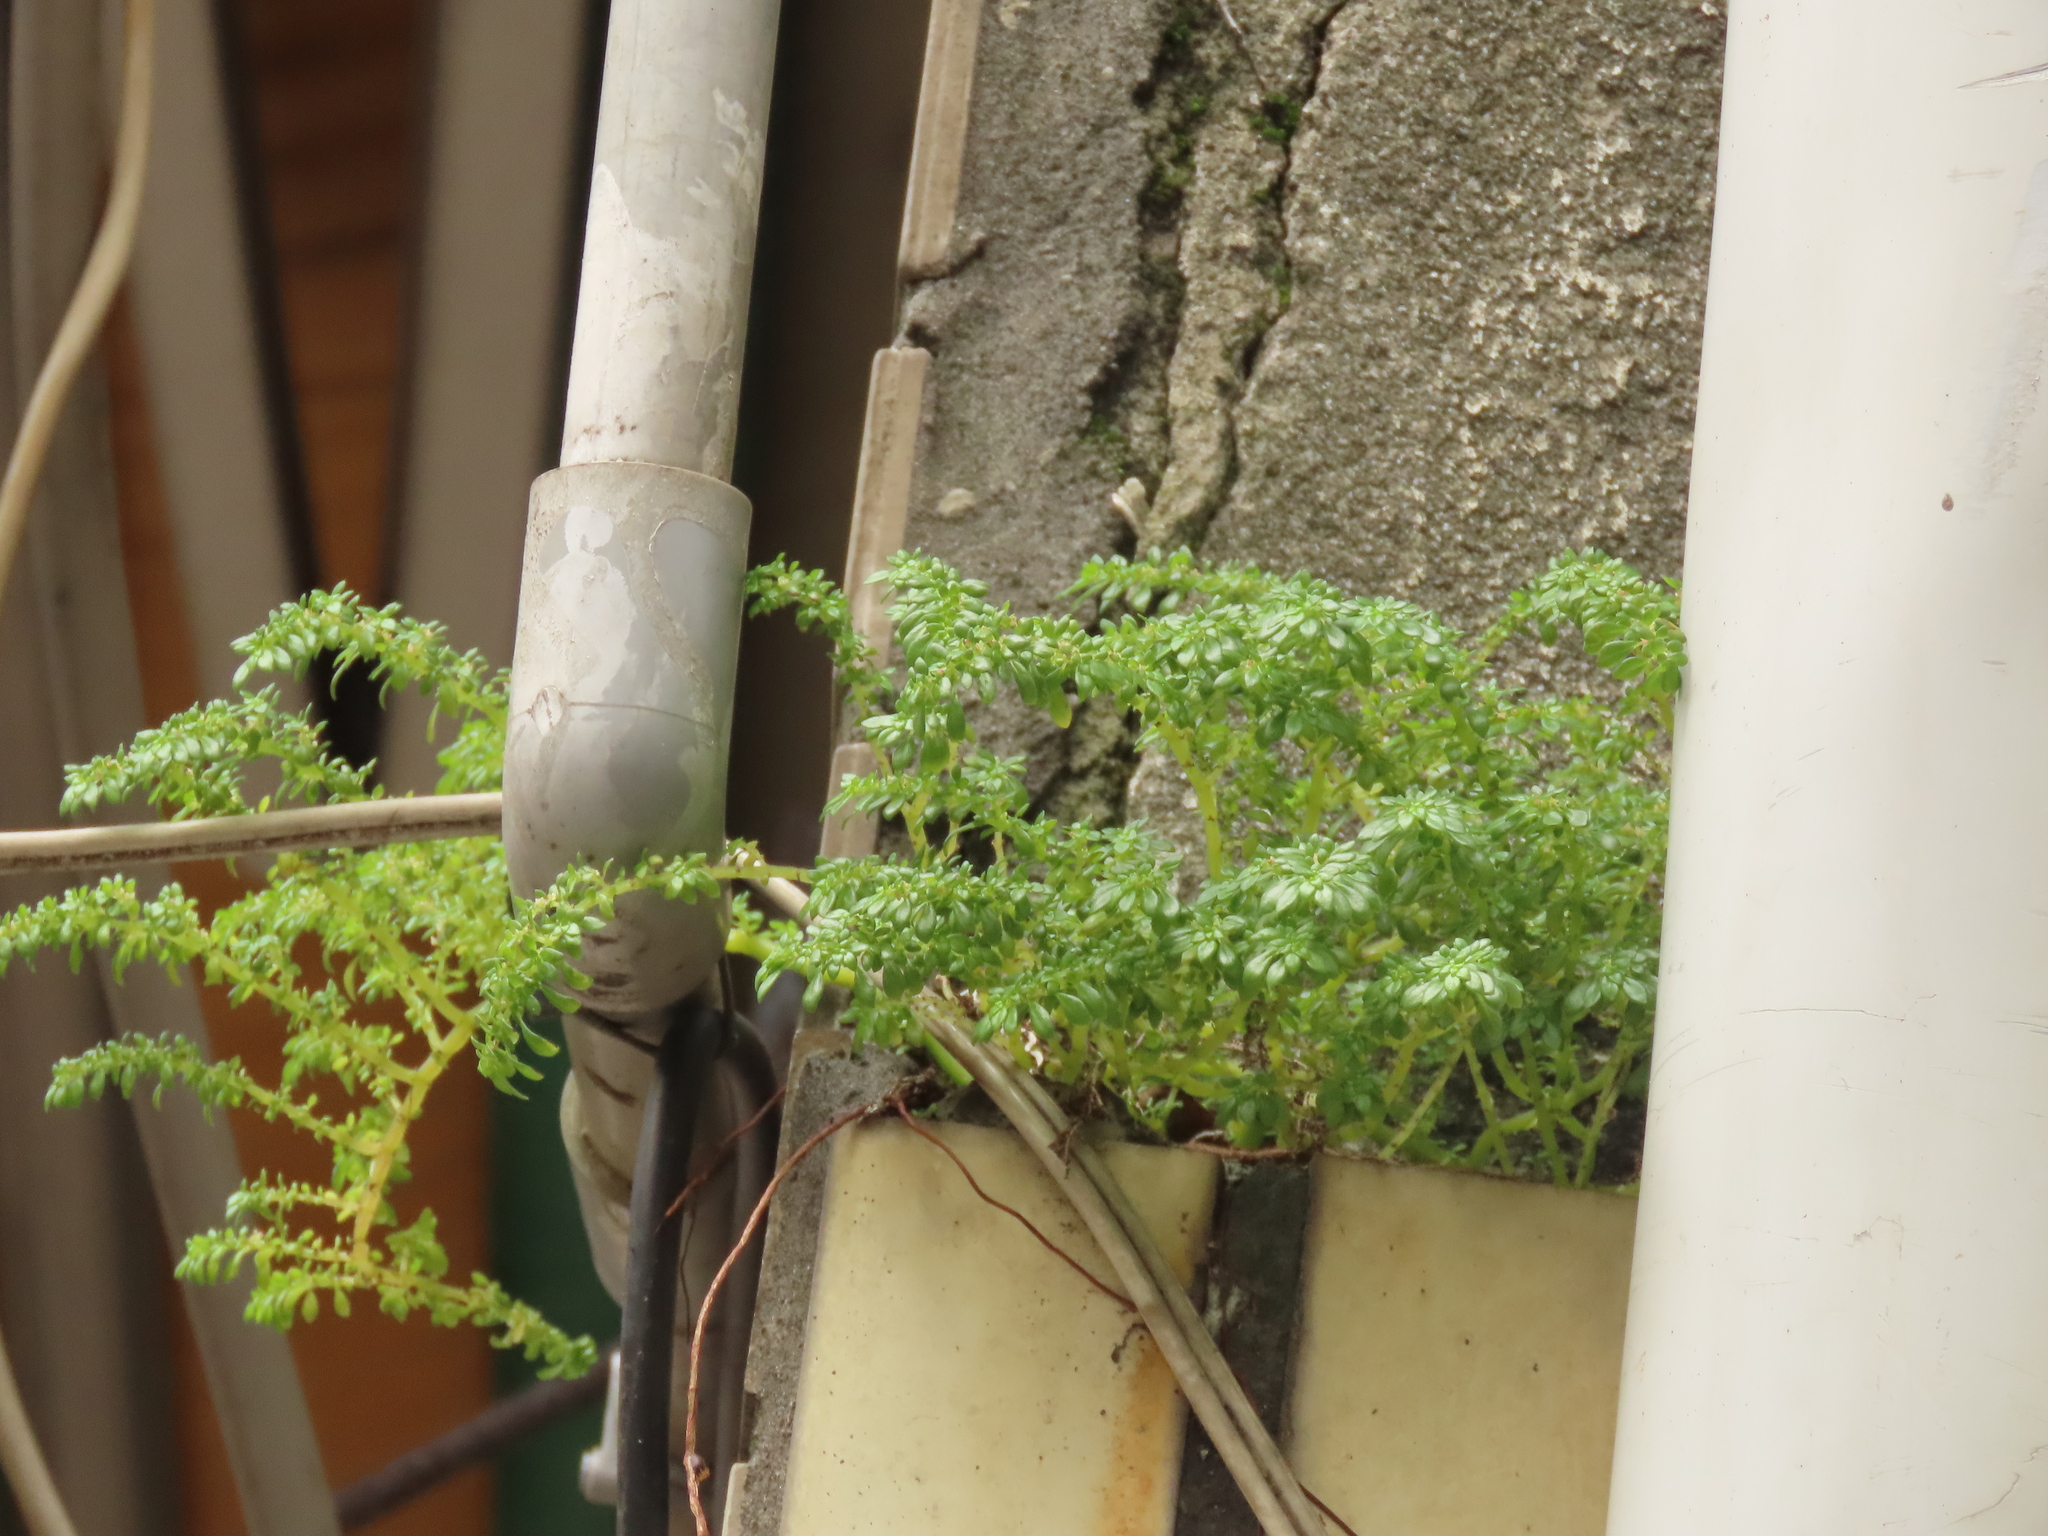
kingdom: Plantae
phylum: Tracheophyta
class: Magnoliopsida
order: Rosales
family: Urticaceae
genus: Pilea
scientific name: Pilea microphylla
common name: Artillery-plant
